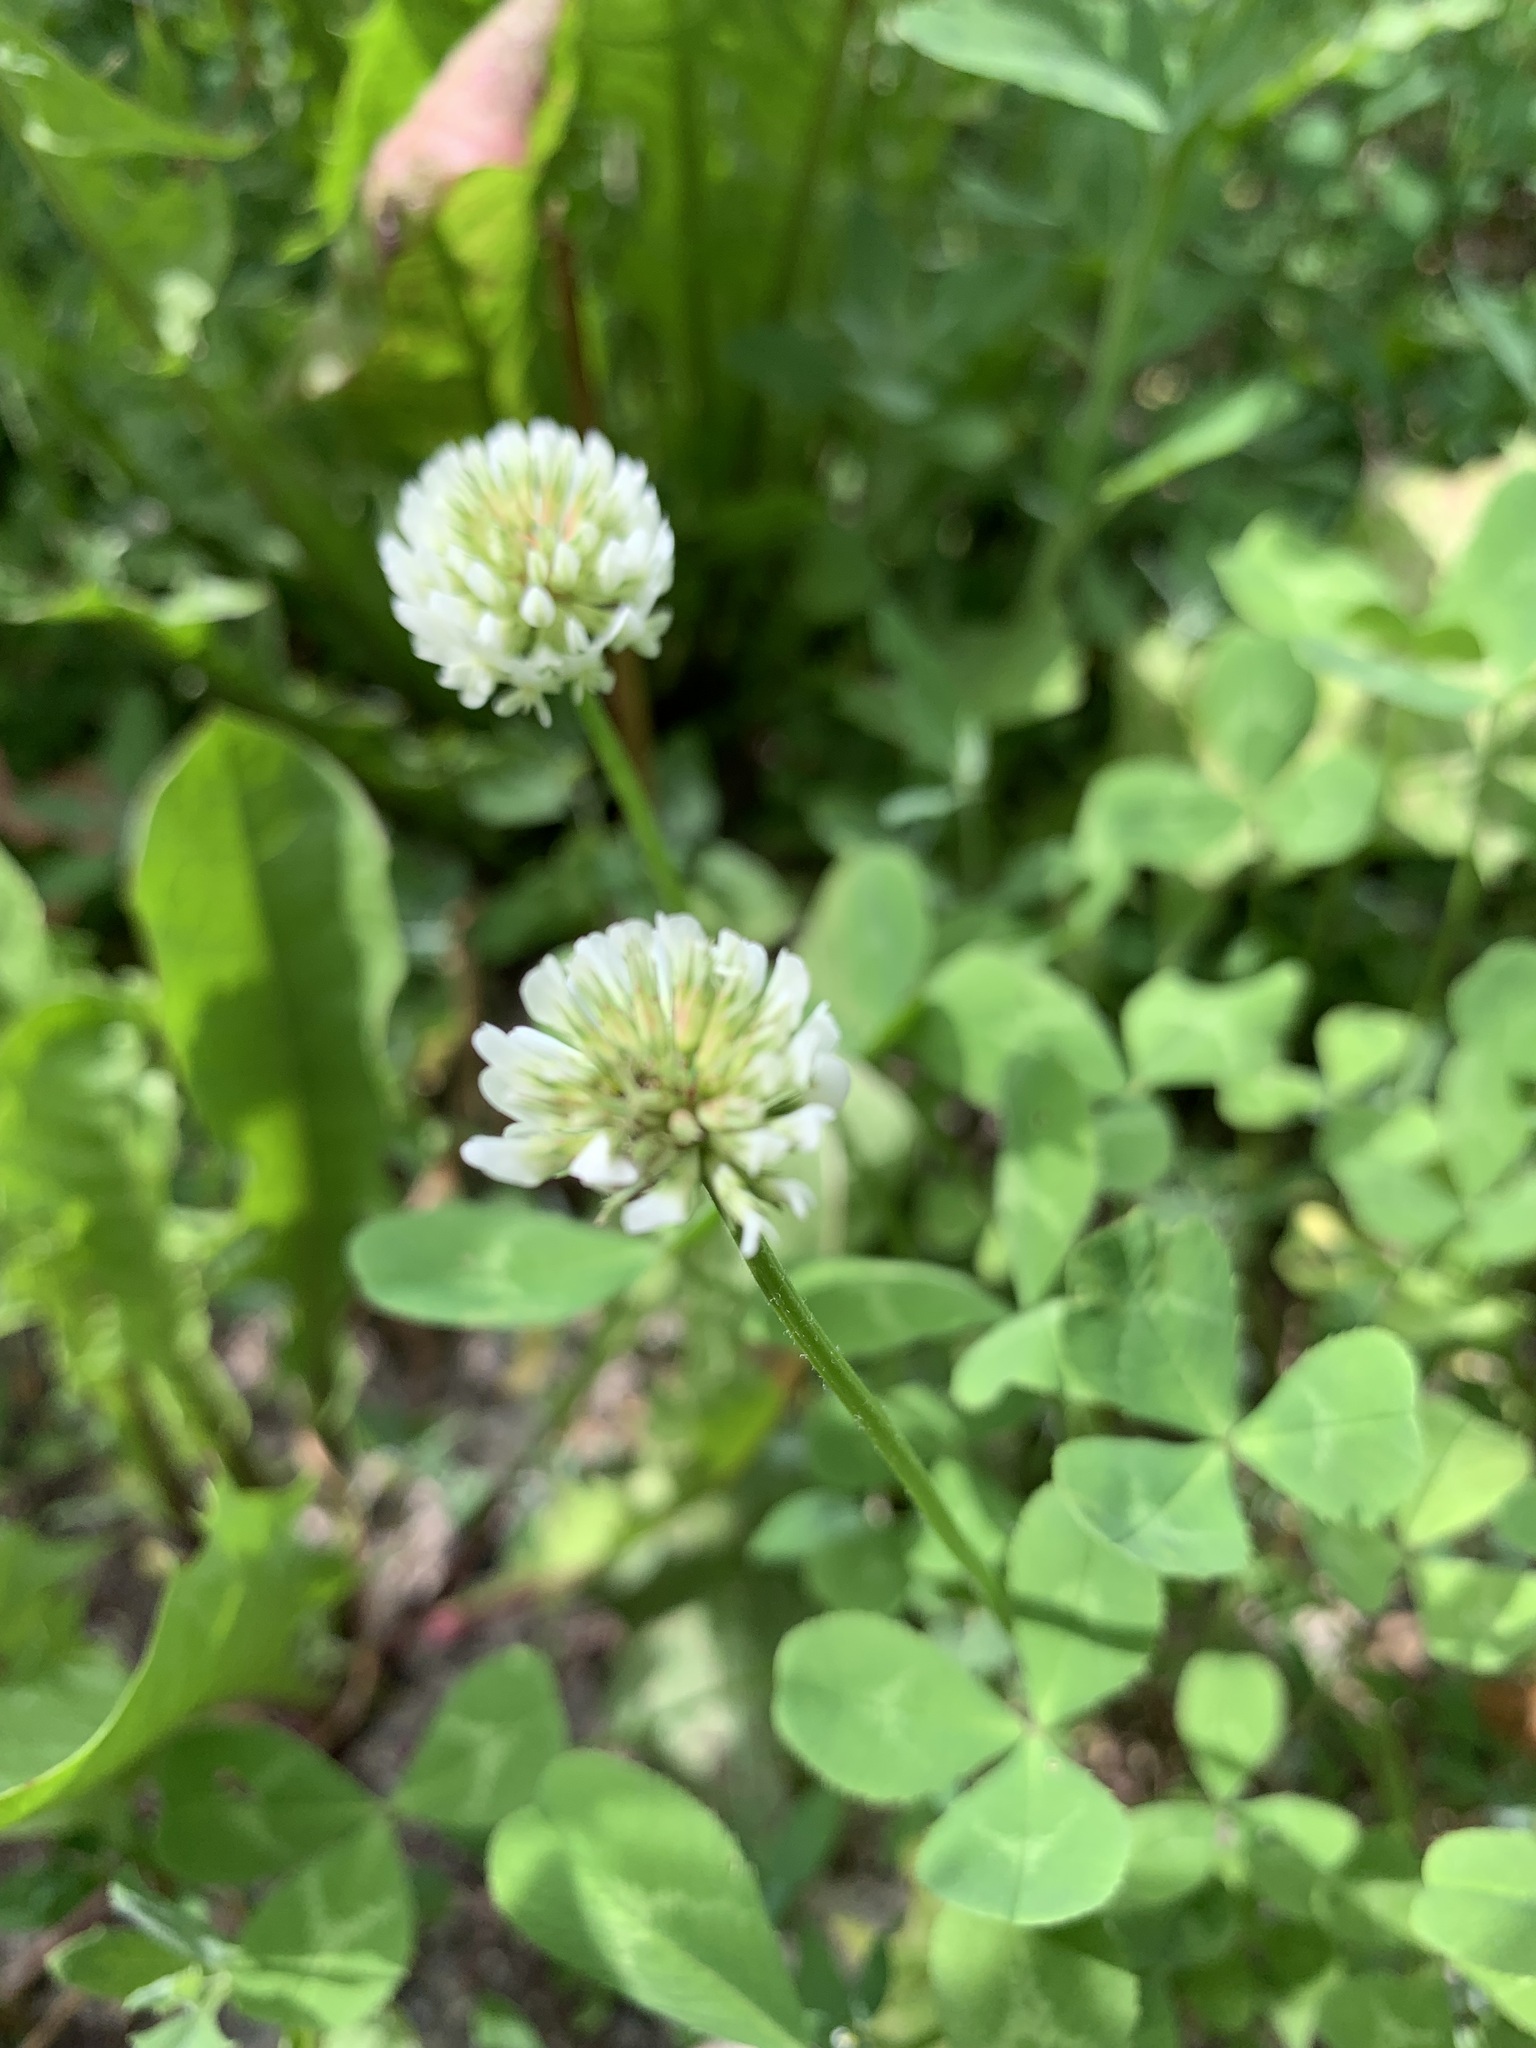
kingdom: Plantae
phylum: Tracheophyta
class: Magnoliopsida
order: Fabales
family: Fabaceae
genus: Trifolium
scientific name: Trifolium repens
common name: White clover
